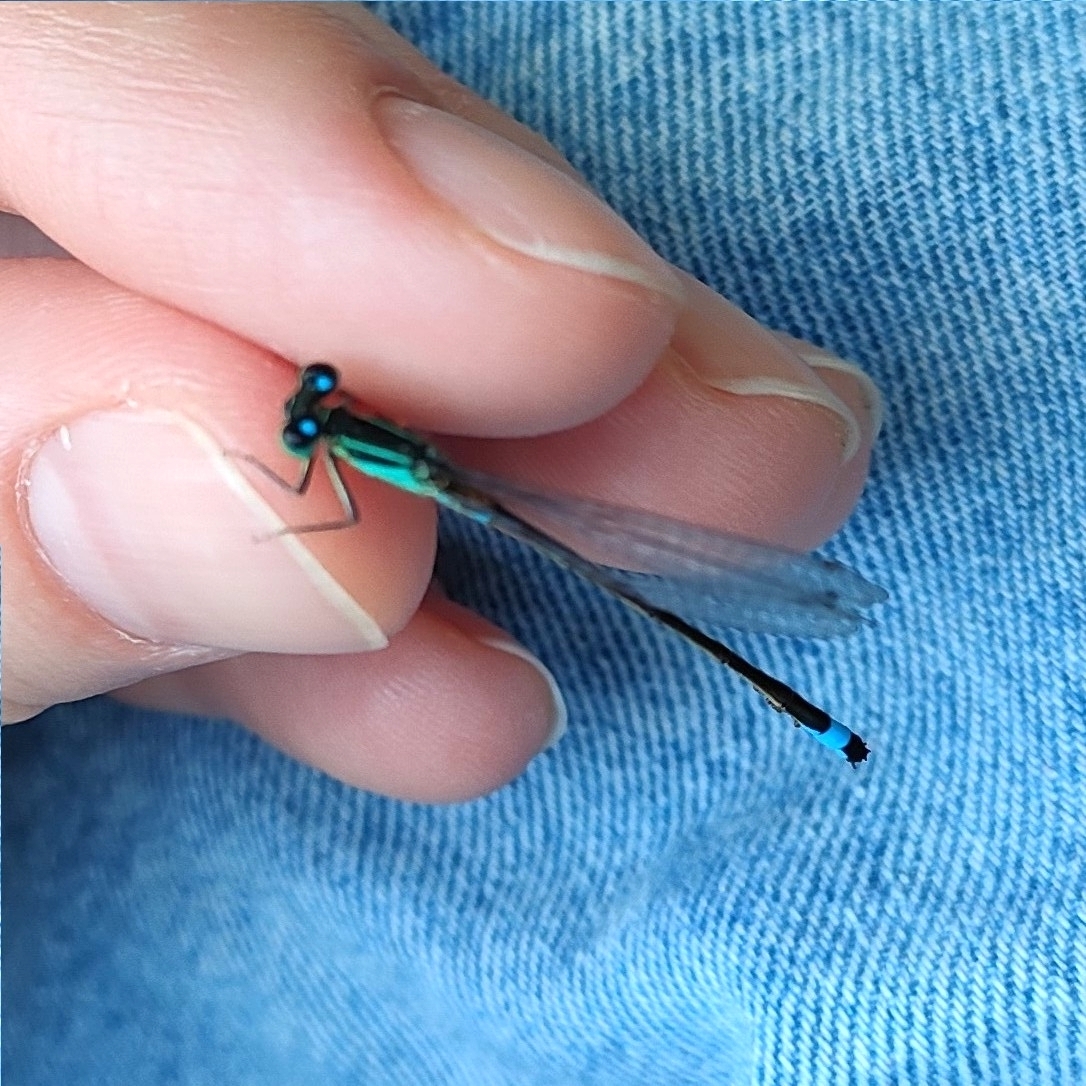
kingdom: Animalia
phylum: Arthropoda
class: Insecta
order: Odonata
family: Coenagrionidae
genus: Ischnura
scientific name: Ischnura elegans
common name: Blue-tailed damselfly
